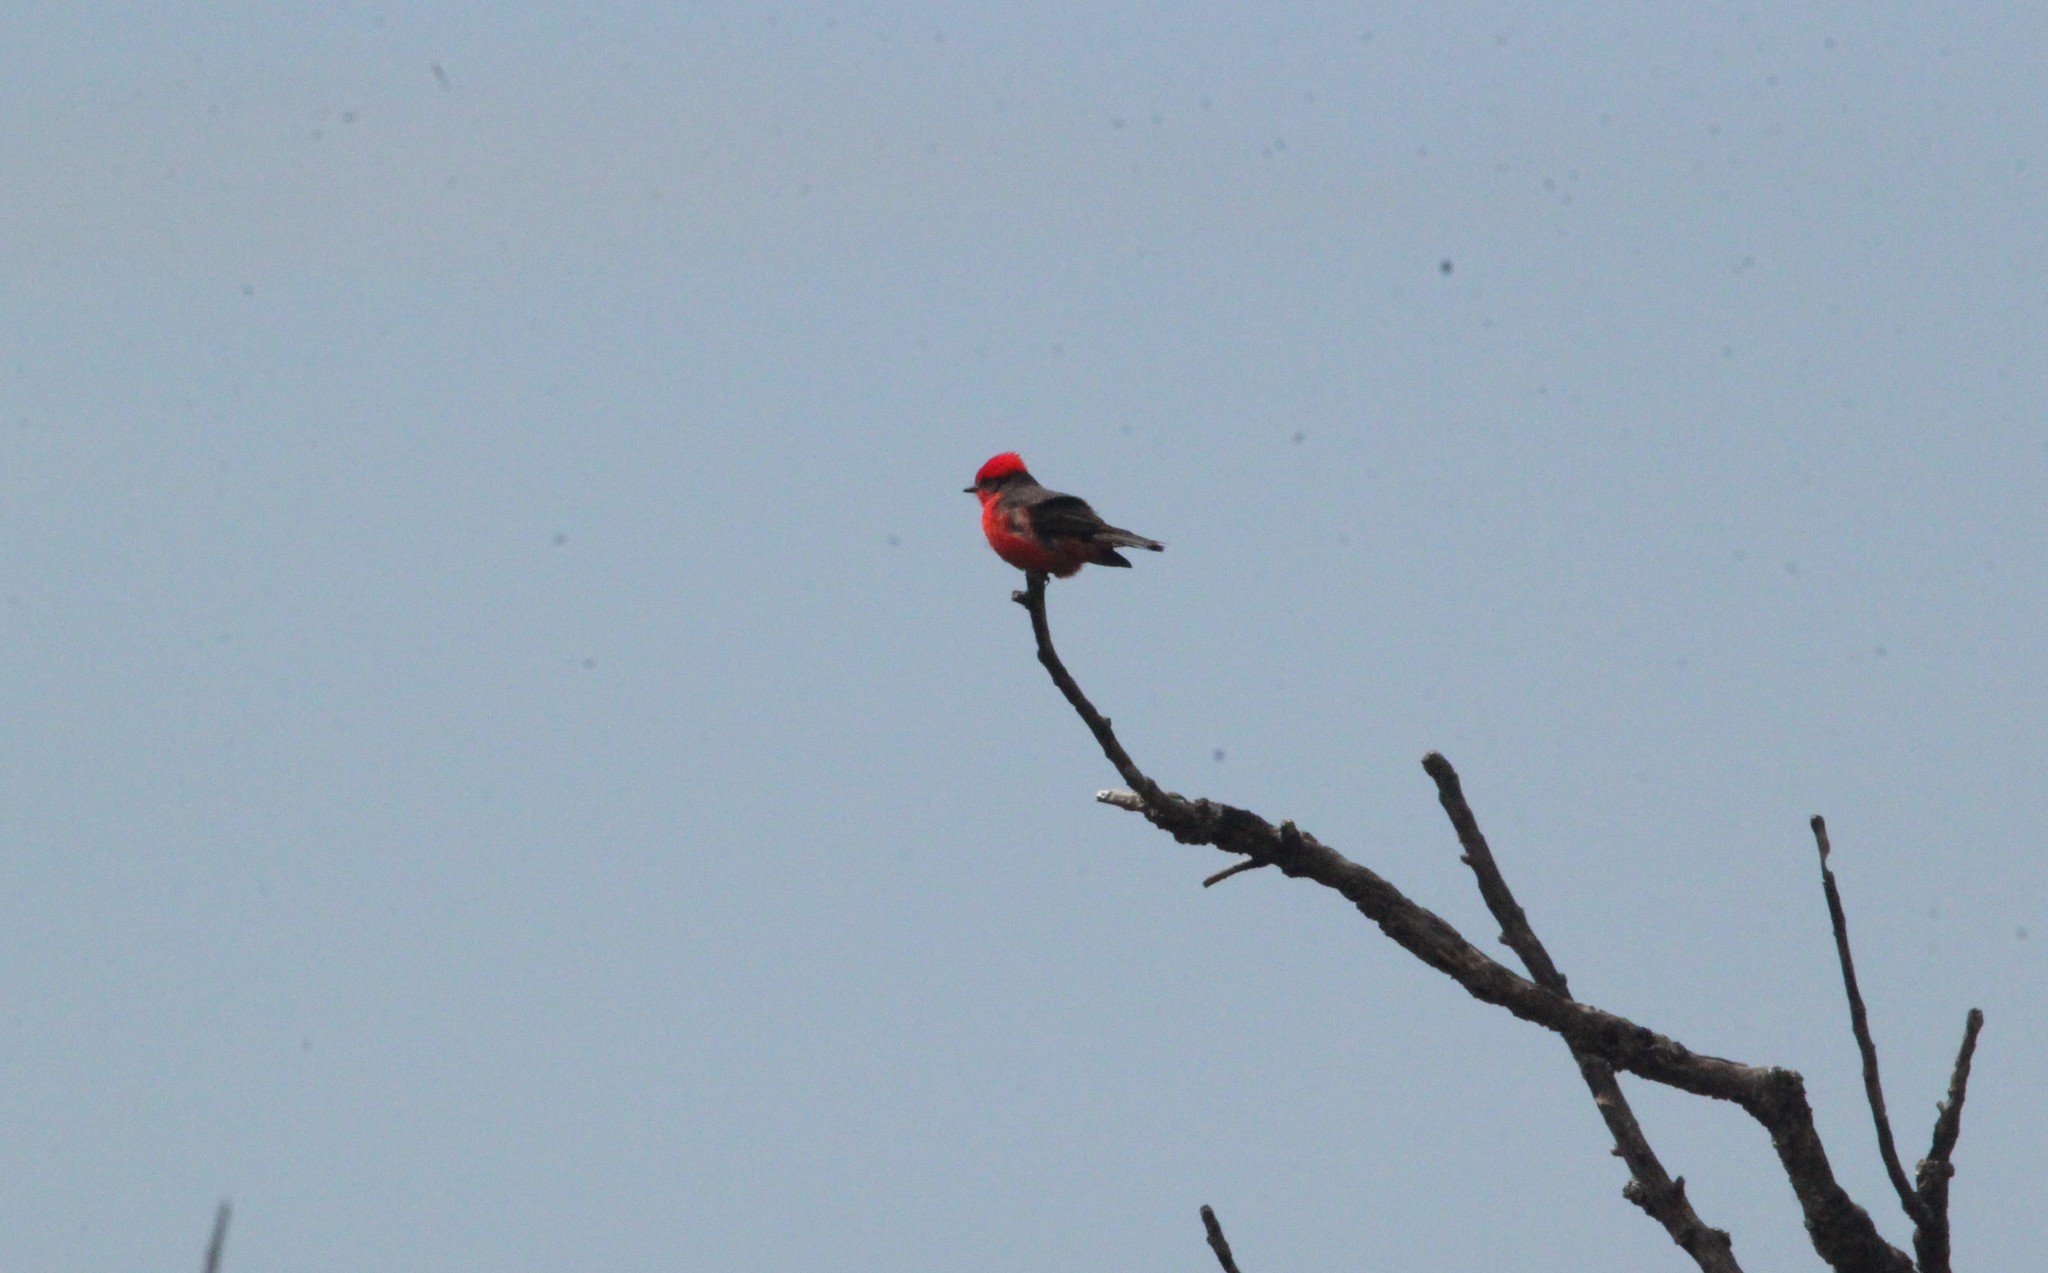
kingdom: Animalia
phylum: Chordata
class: Aves
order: Passeriformes
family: Tyrannidae
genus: Pyrocephalus
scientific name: Pyrocephalus rubinus
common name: Vermilion flycatcher
